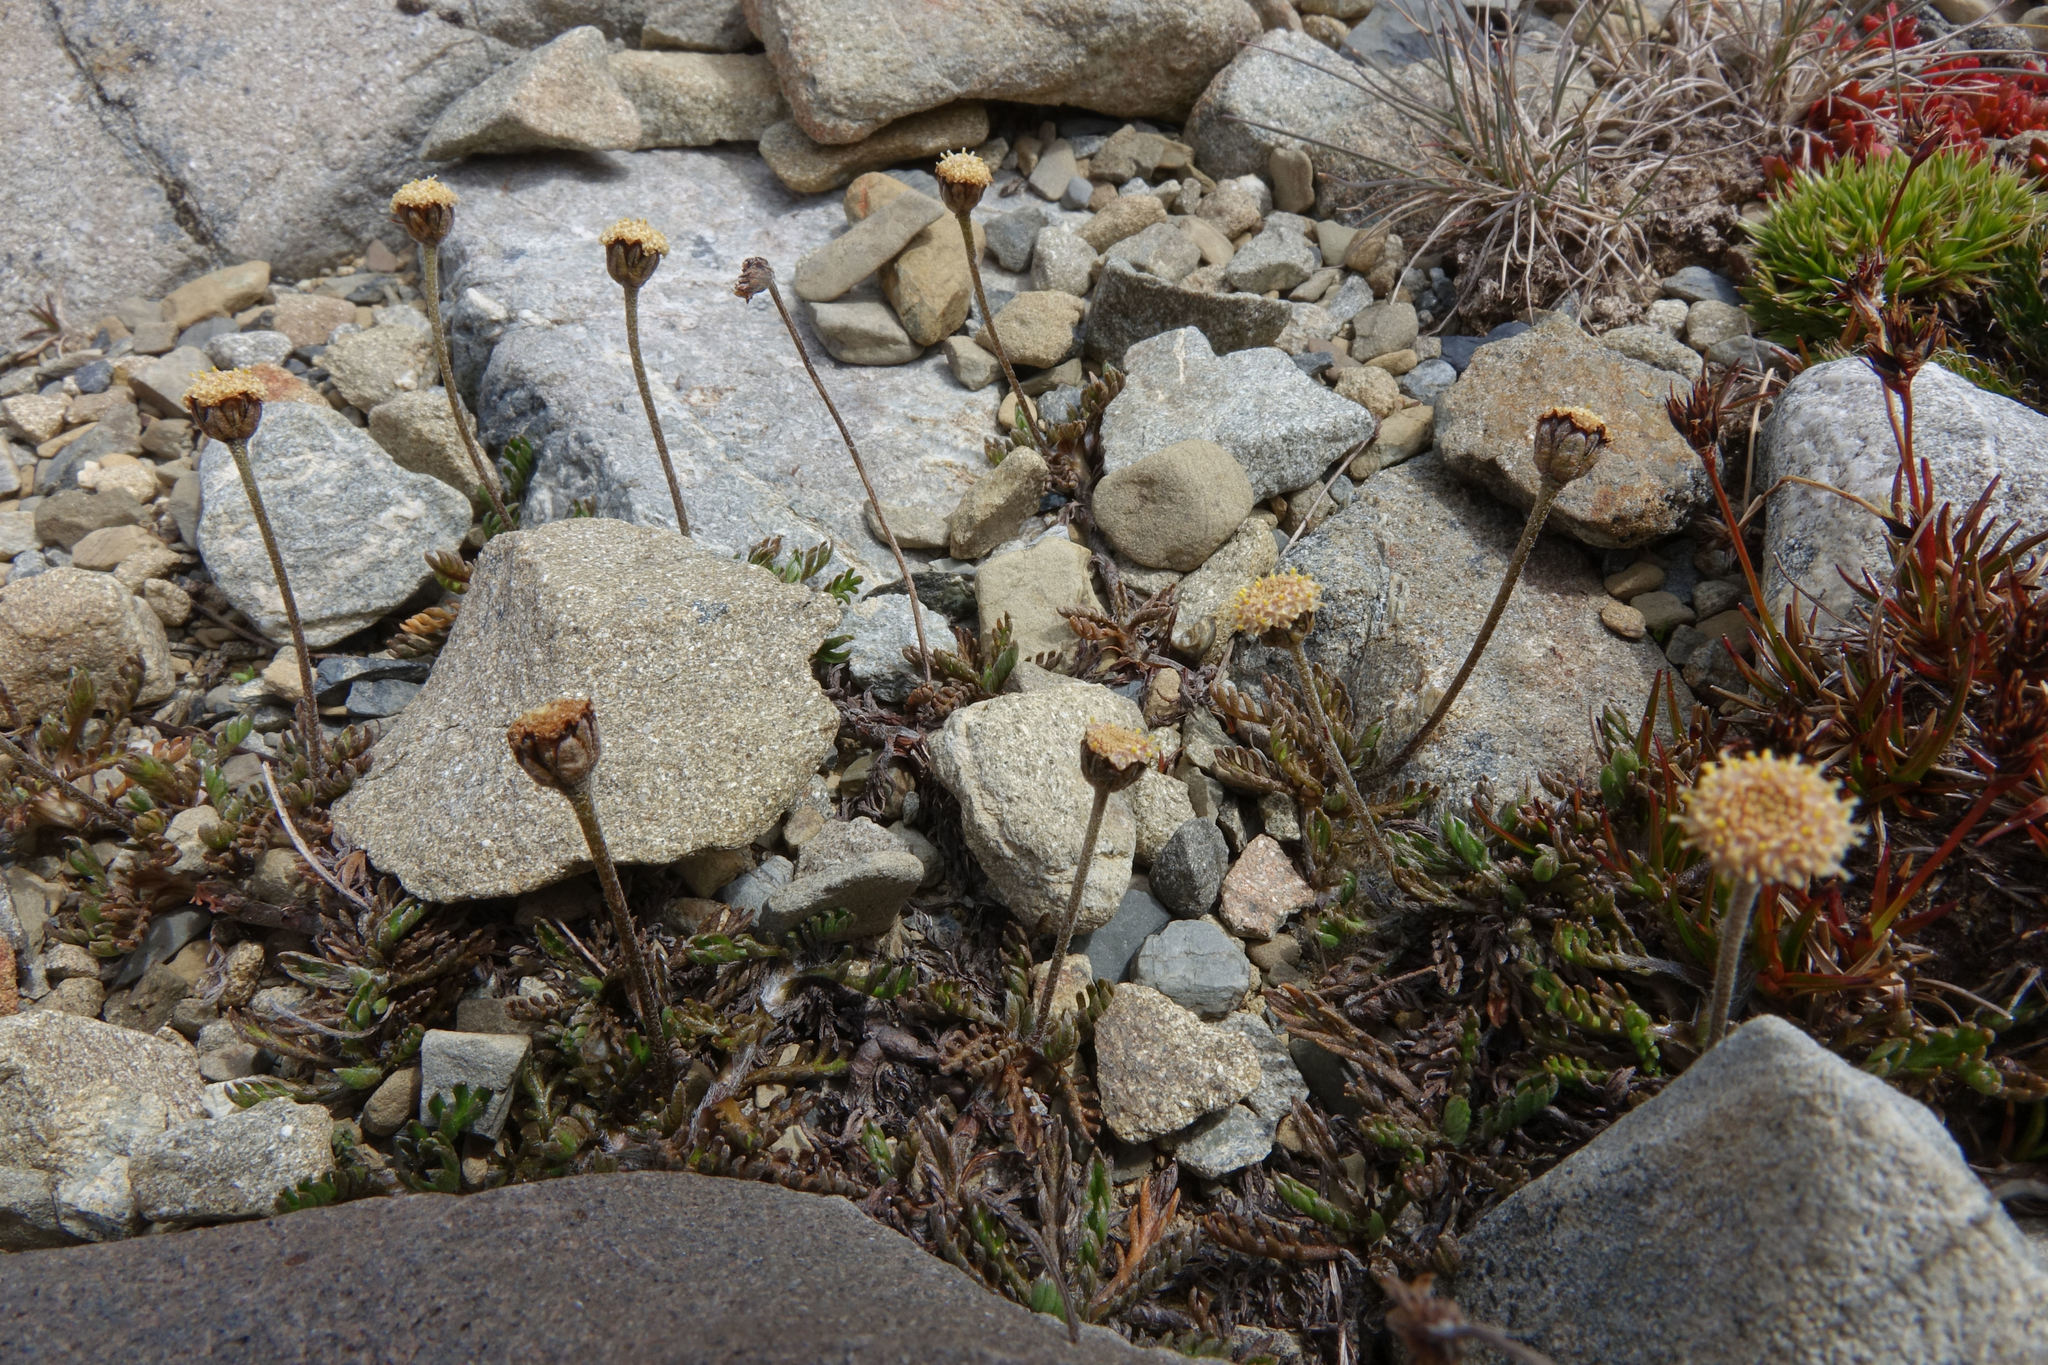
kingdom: Plantae
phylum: Tracheophyta
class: Magnoliopsida
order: Asterales
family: Asteraceae
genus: Leptinella
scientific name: Leptinella pectinata
